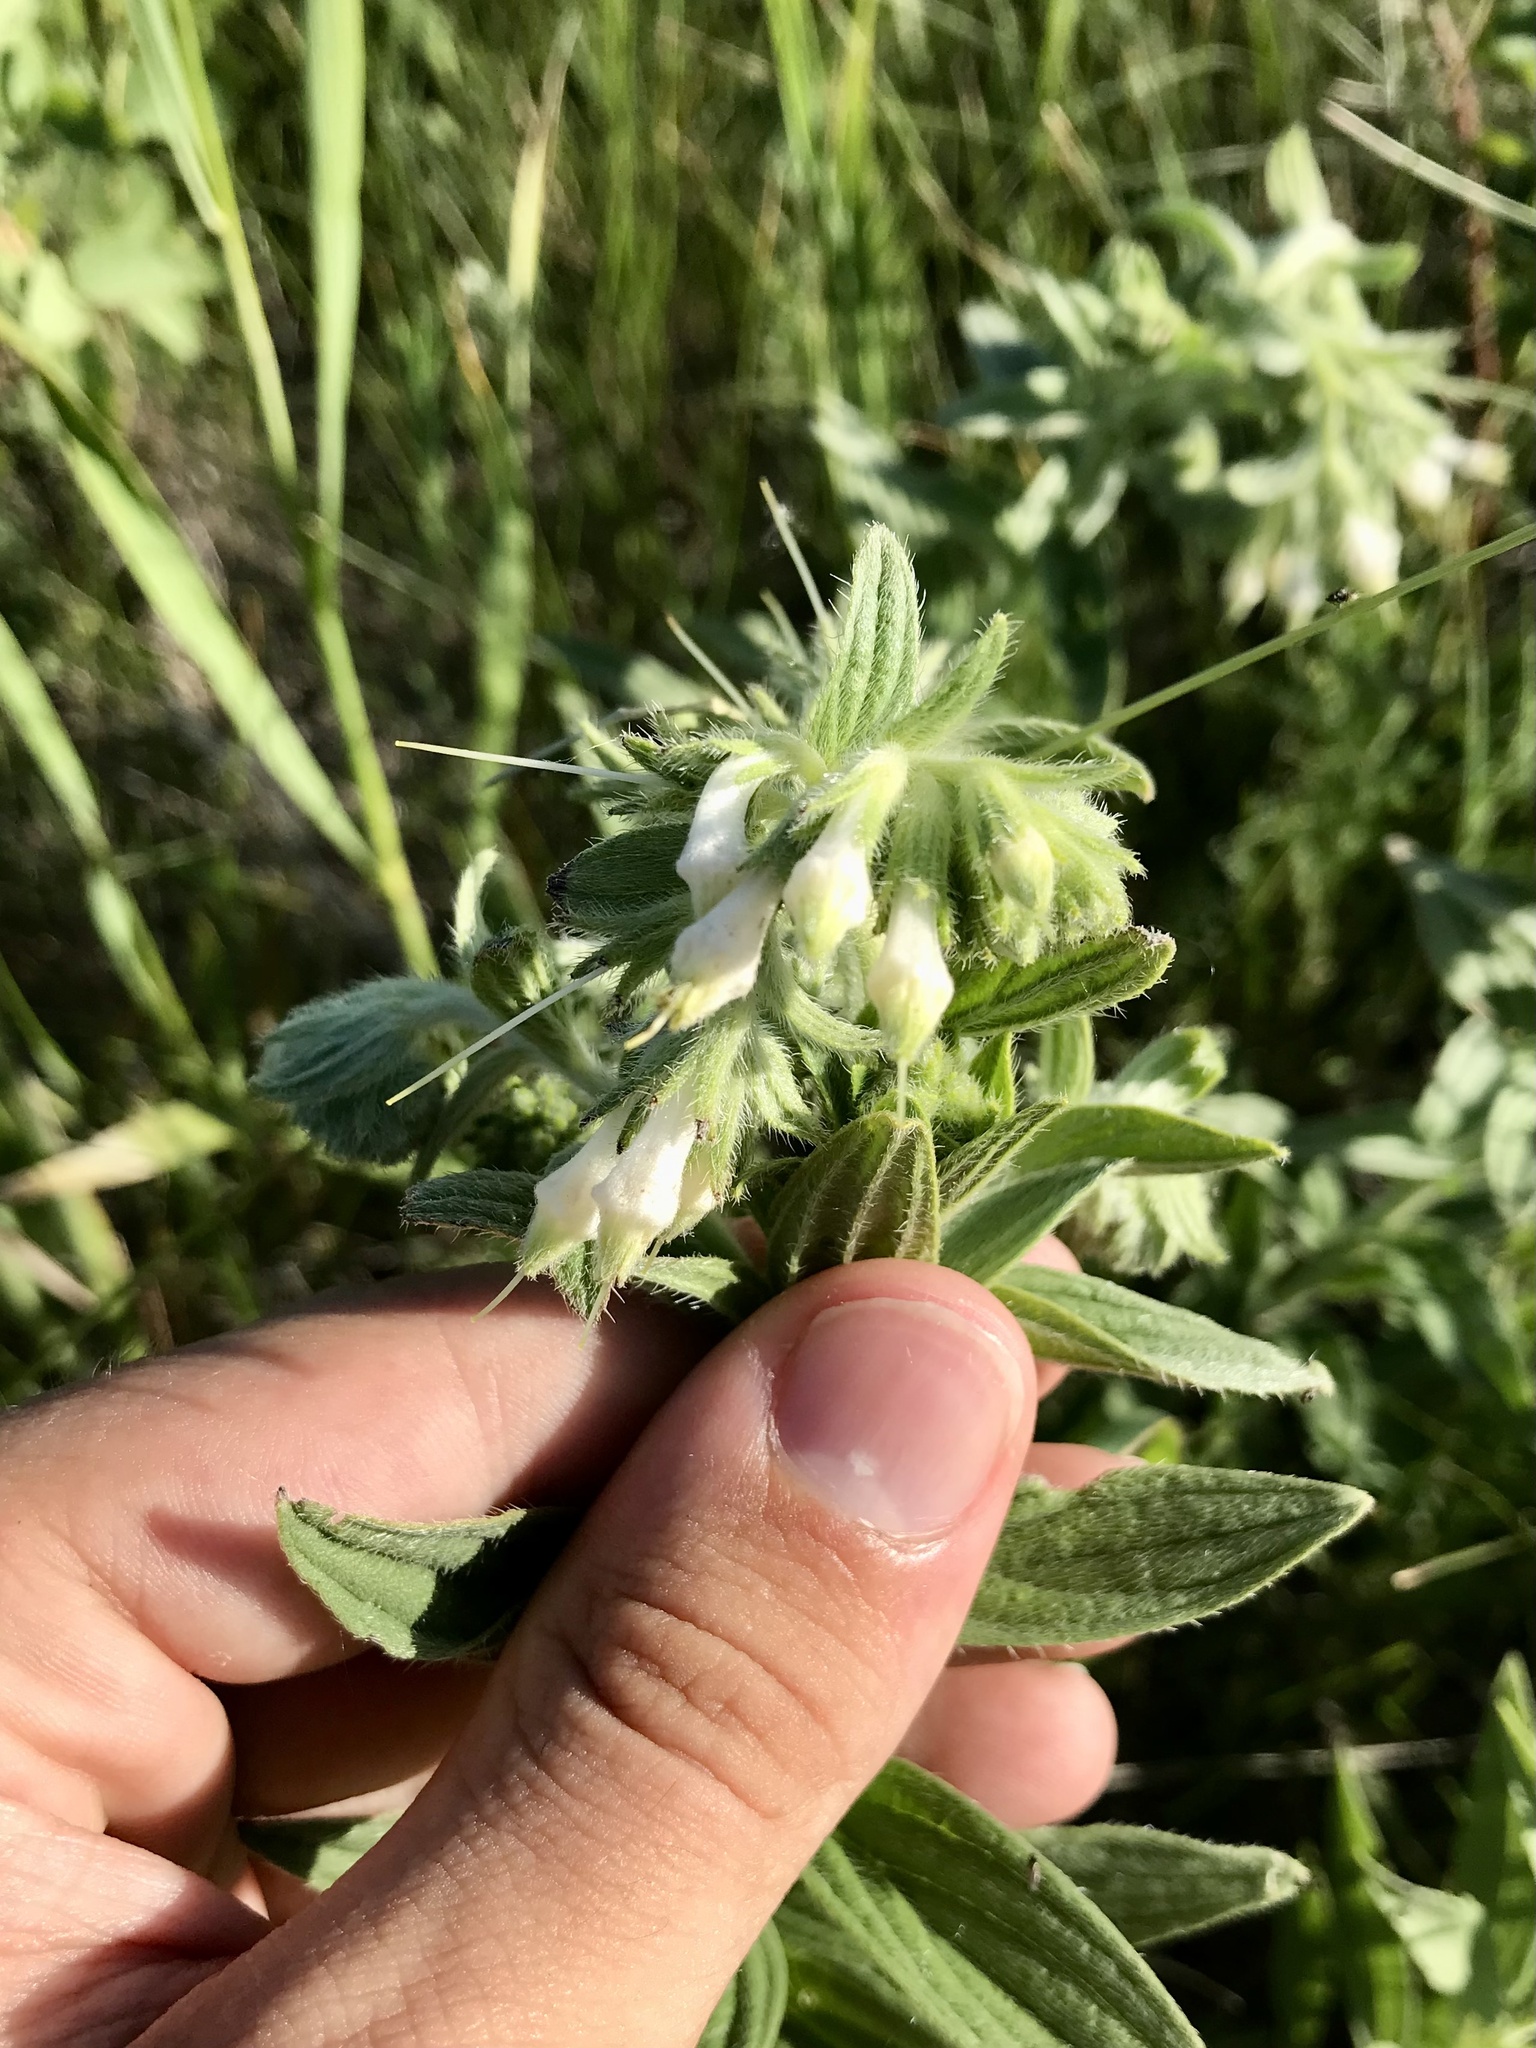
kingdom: Plantae
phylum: Tracheophyta
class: Magnoliopsida
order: Boraginales
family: Boraginaceae
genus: Lithospermum
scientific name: Lithospermum occidentale
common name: Western false gromwell
